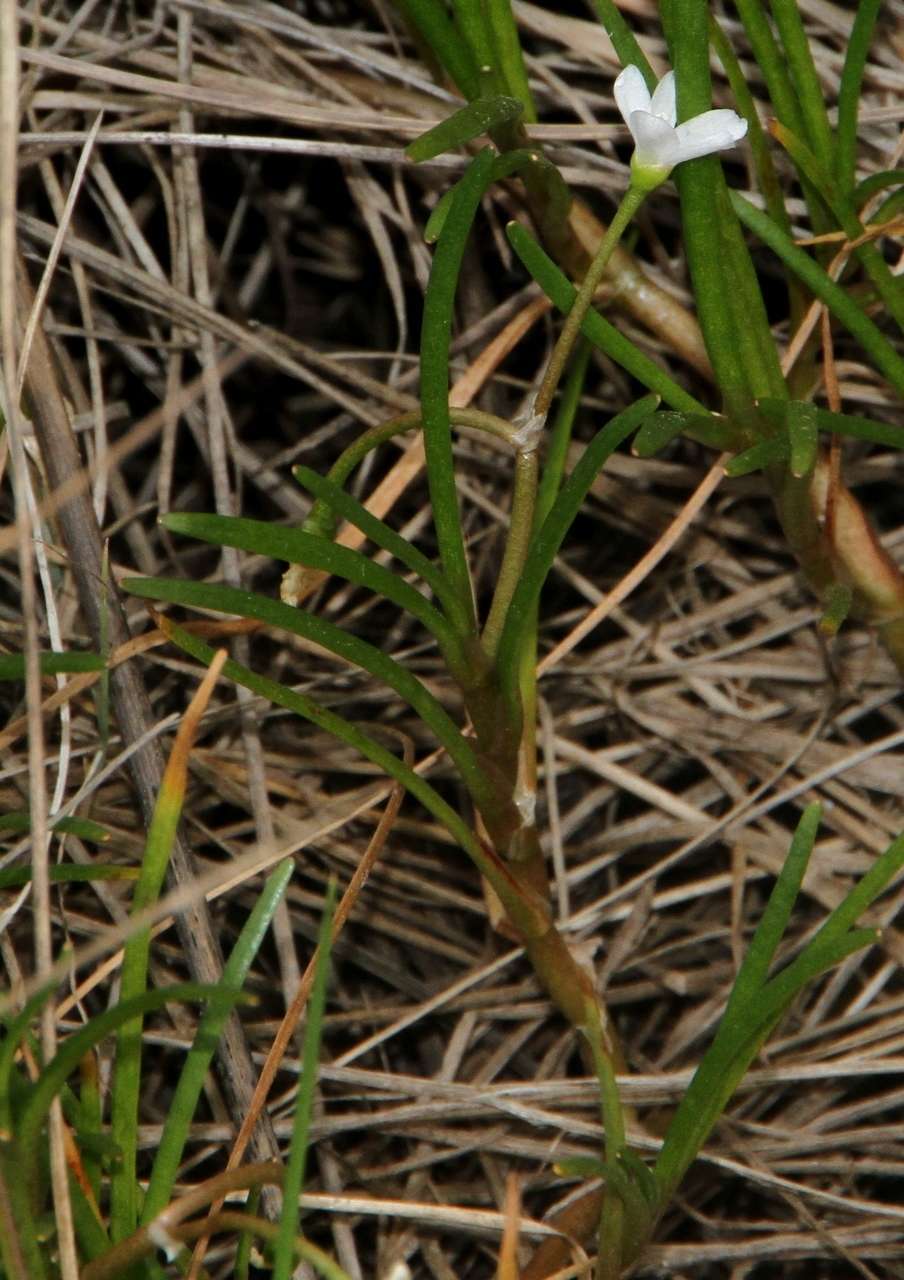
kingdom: Plantae
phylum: Tracheophyta
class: Magnoliopsida
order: Caryophyllales
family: Montiaceae
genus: Montia
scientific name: Montia australasica
